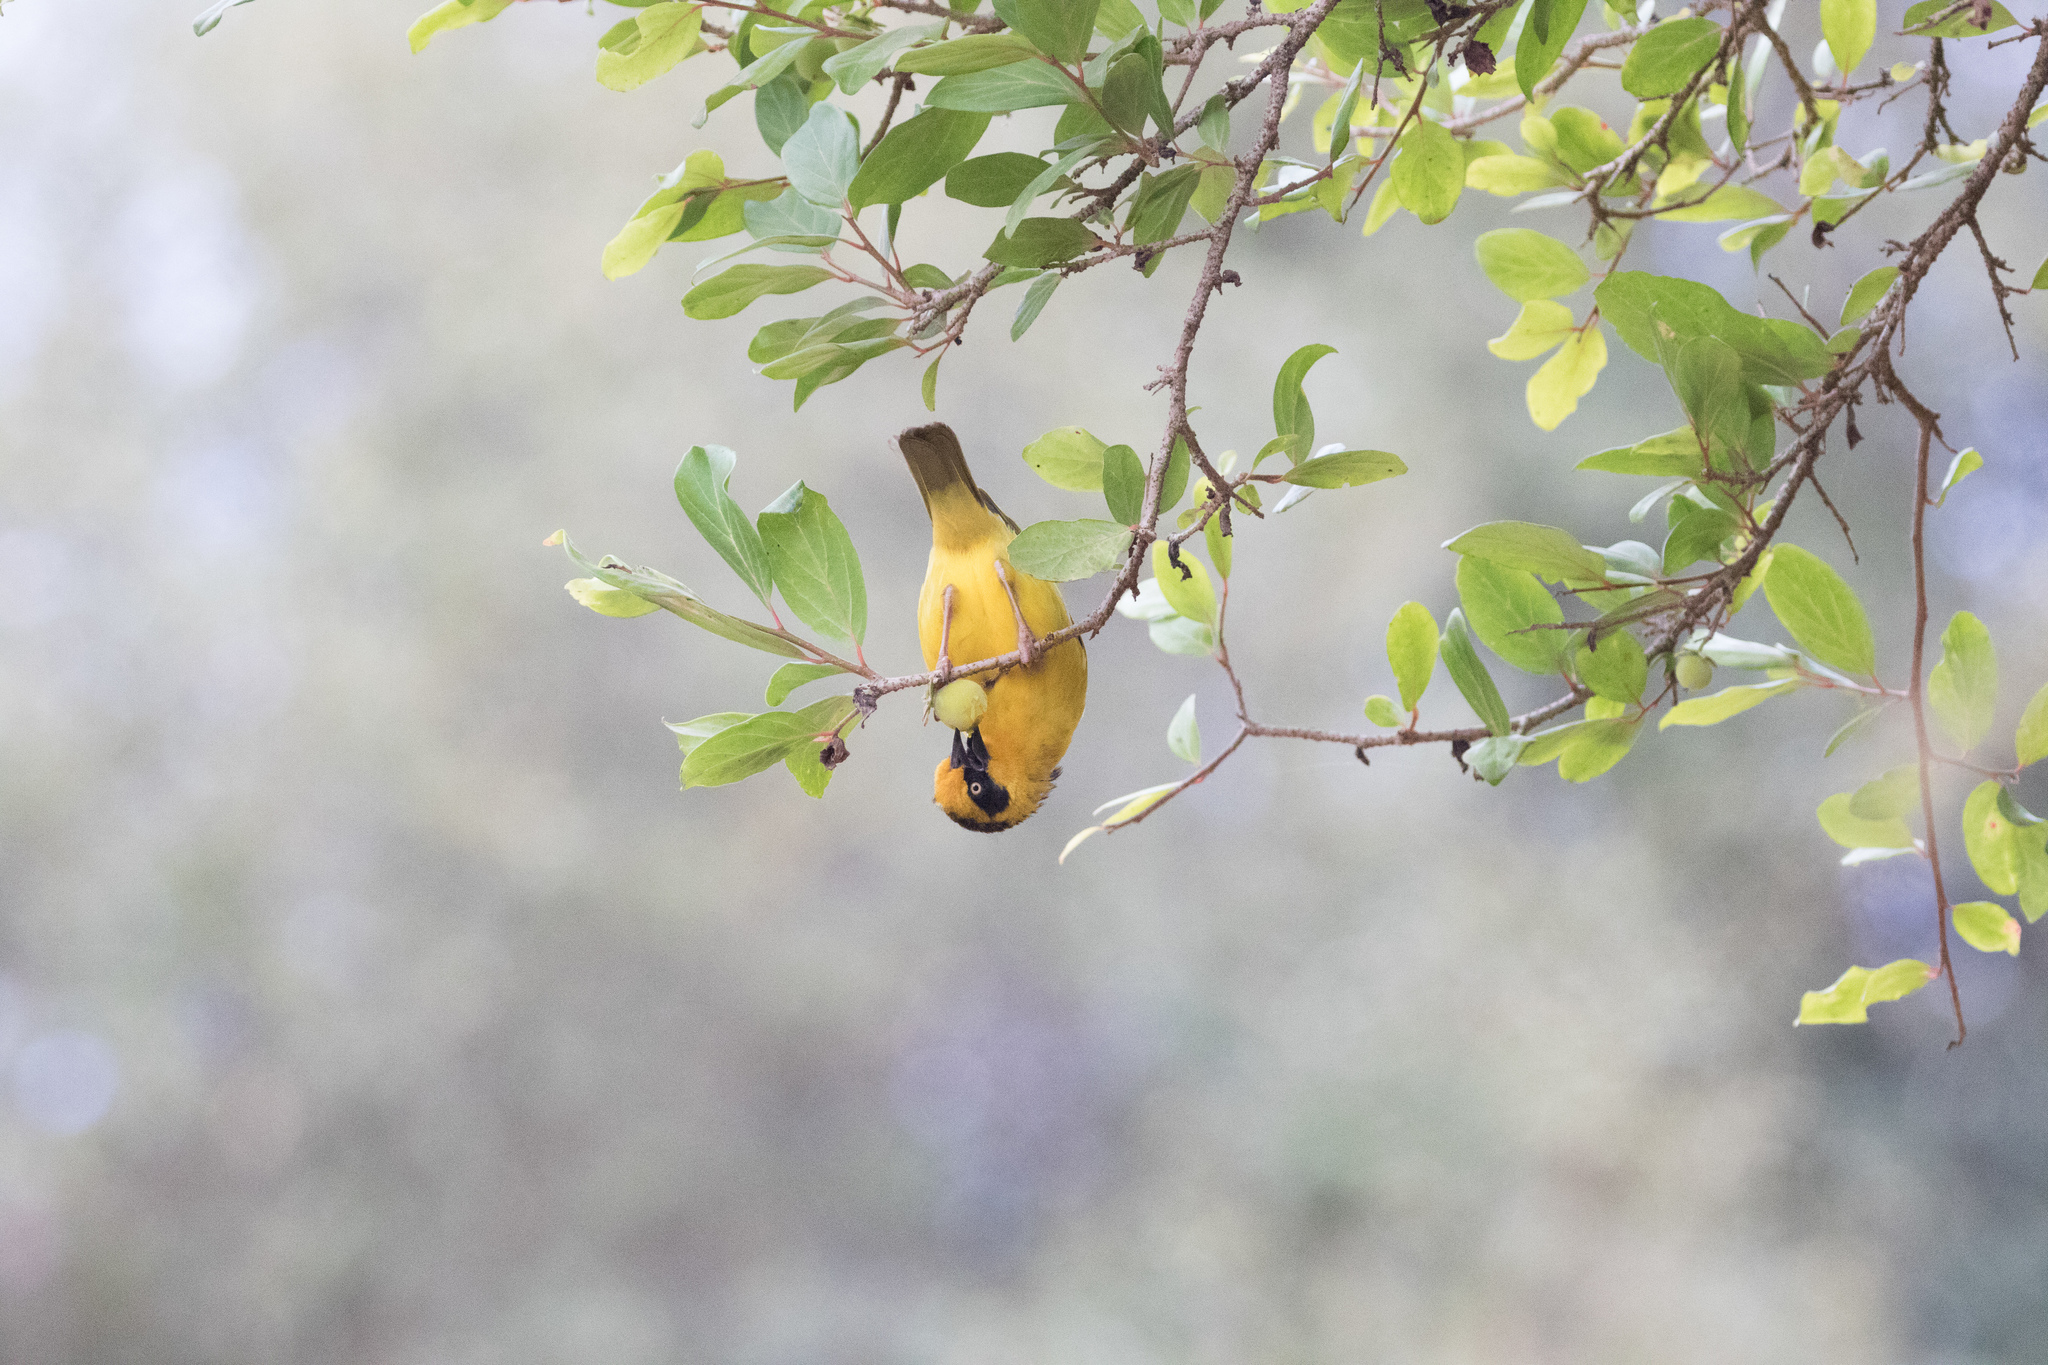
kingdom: Animalia
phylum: Chordata
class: Aves
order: Passeriformes
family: Ploceidae
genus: Ploceus
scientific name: Ploceus baglafecht
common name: Baglafecht weaver
